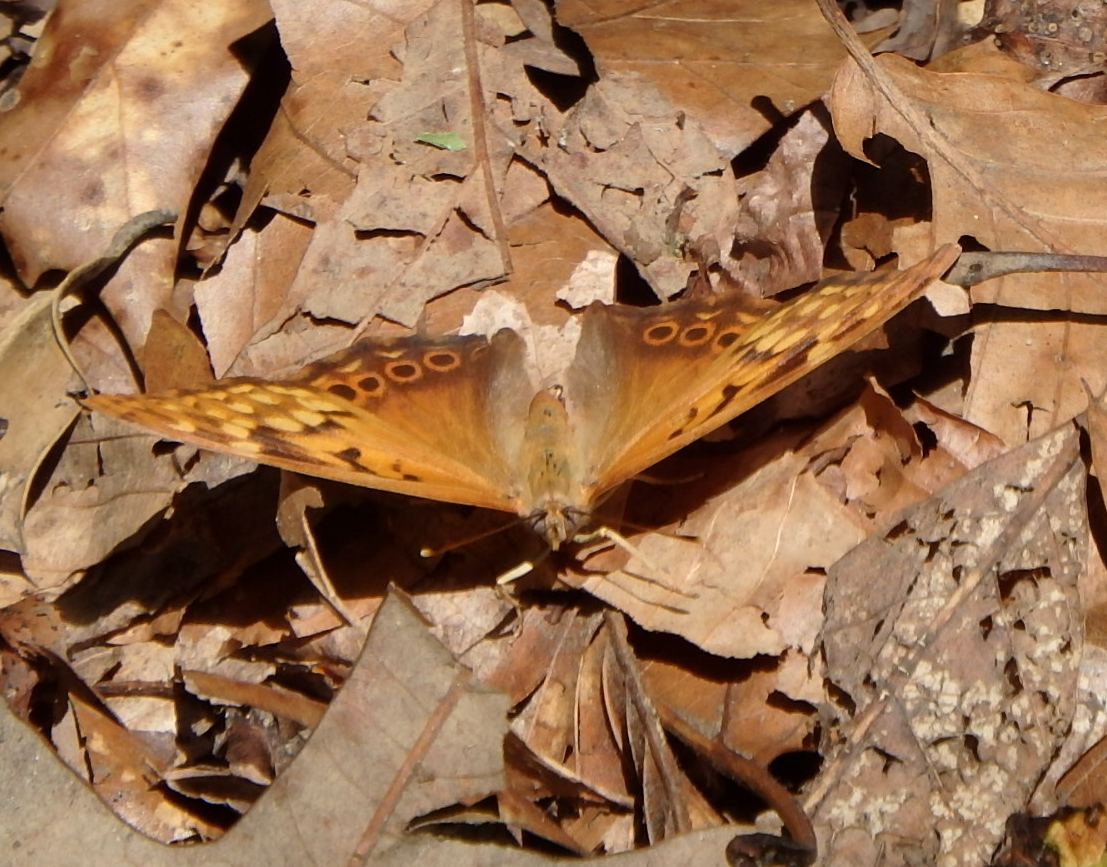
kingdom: Animalia
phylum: Arthropoda
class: Insecta
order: Lepidoptera
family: Nymphalidae
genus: Asterocampa
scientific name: Asterocampa clyton
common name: Tawny emperor
